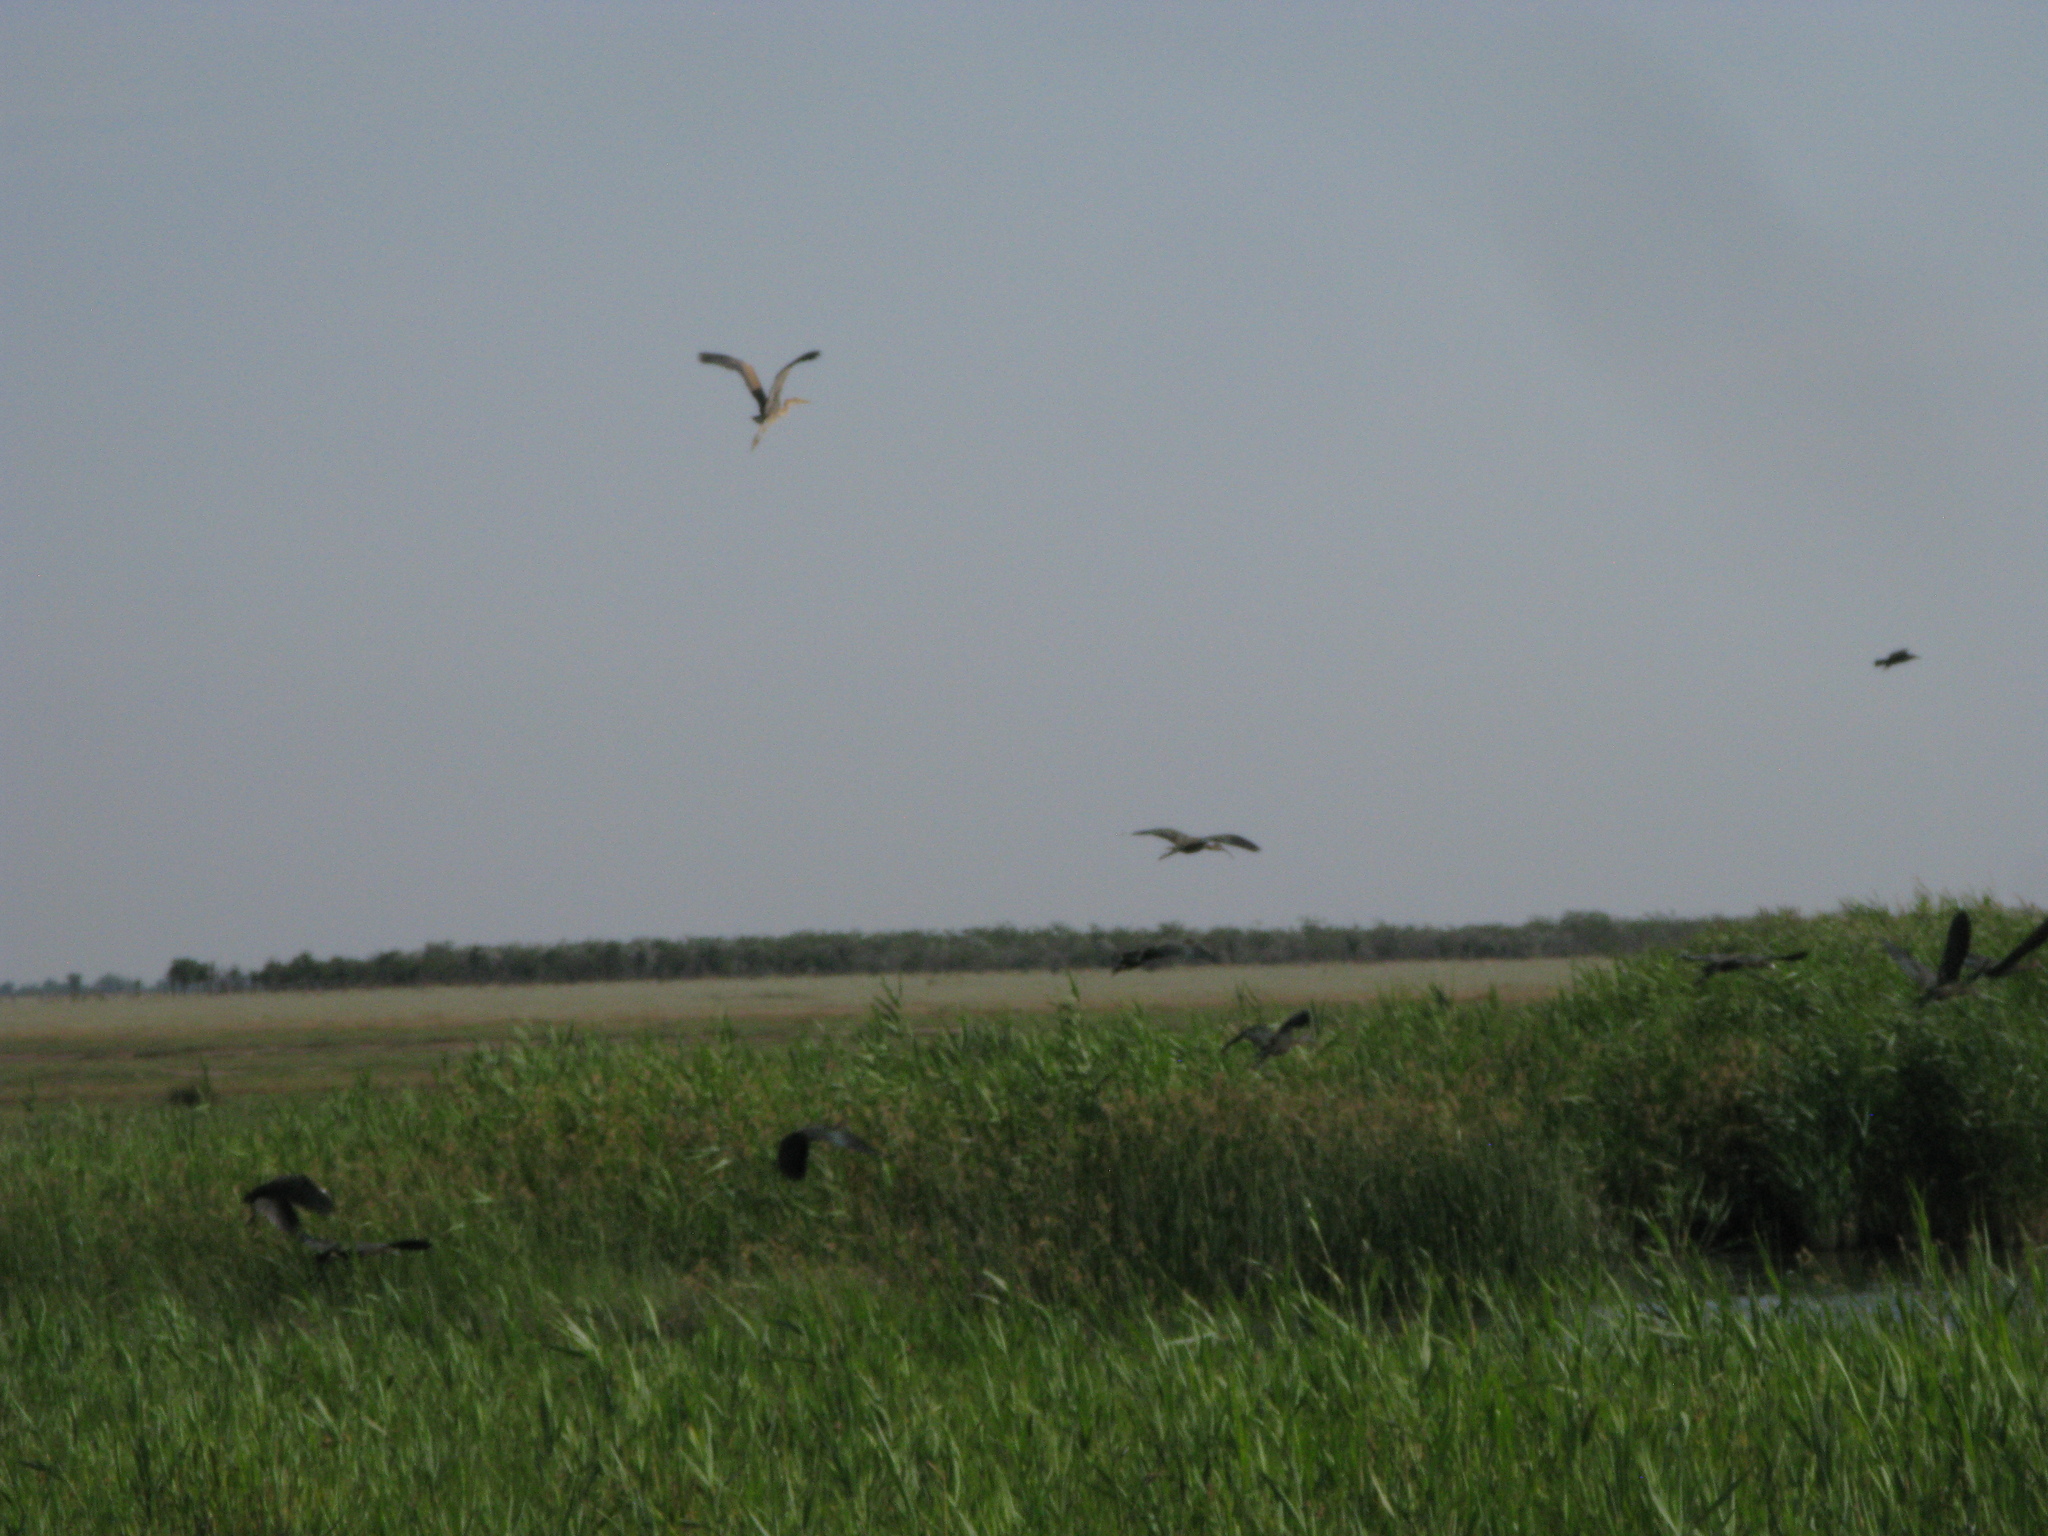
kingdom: Animalia
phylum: Chordata
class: Aves
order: Pelecaniformes
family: Threskiornithidae
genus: Plegadis
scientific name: Plegadis falcinellus
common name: Glossy ibis
